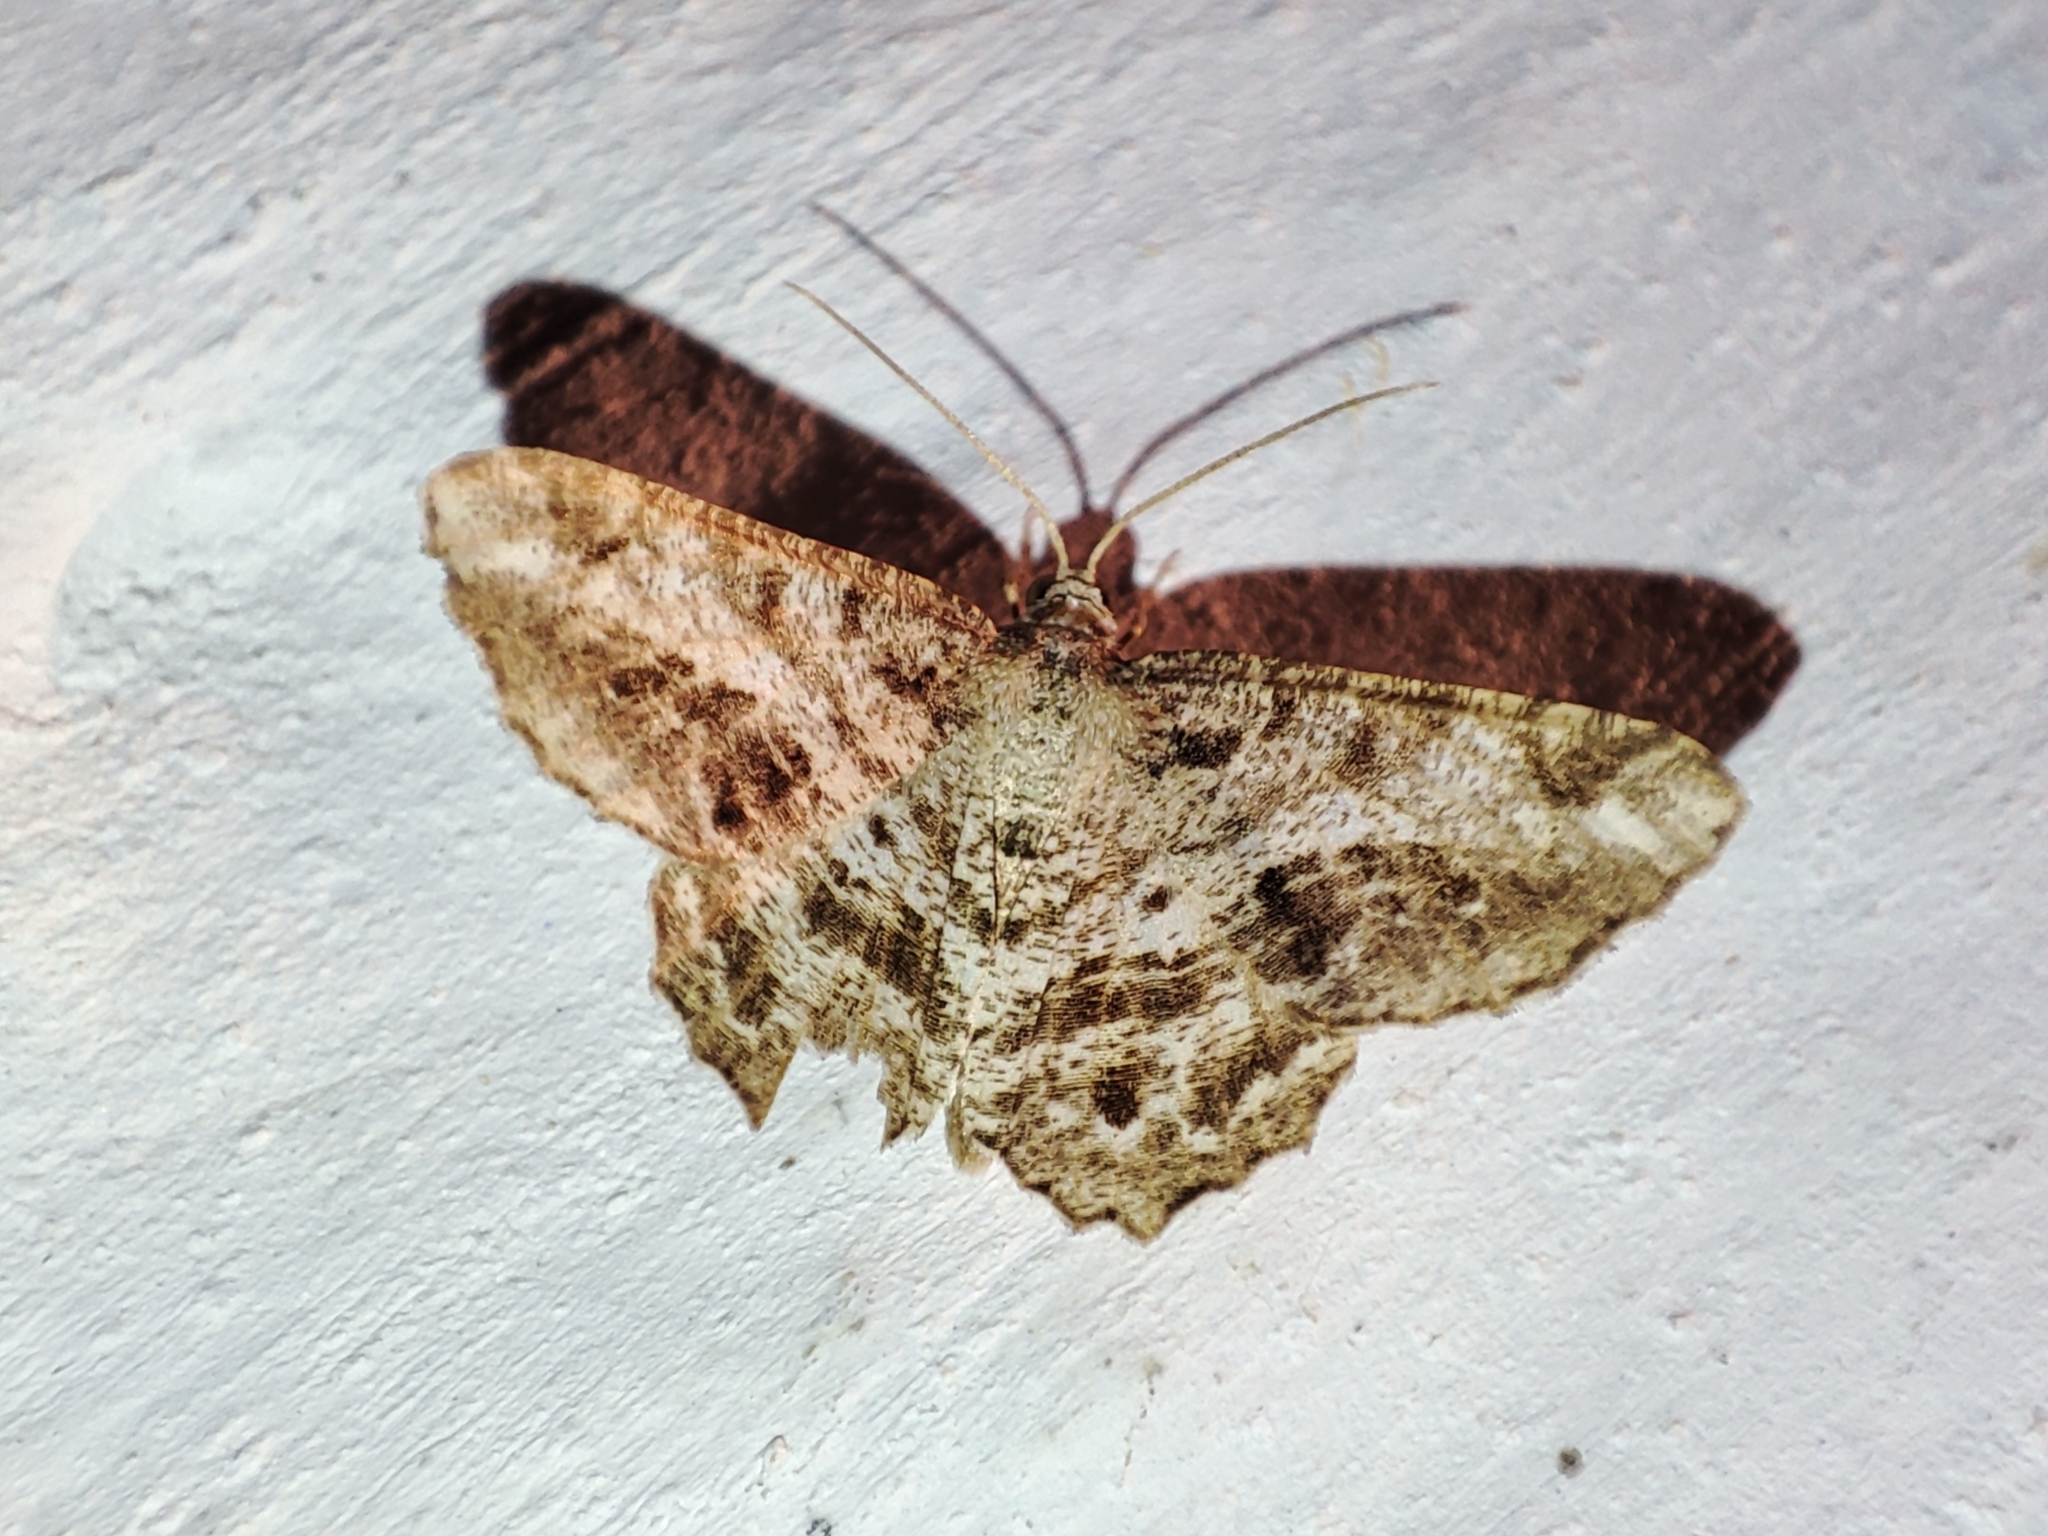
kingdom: Animalia
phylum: Arthropoda
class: Insecta
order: Lepidoptera
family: Geometridae
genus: Chiasmia
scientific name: Chiasmia aestimaria
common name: Tamarisk peacock
